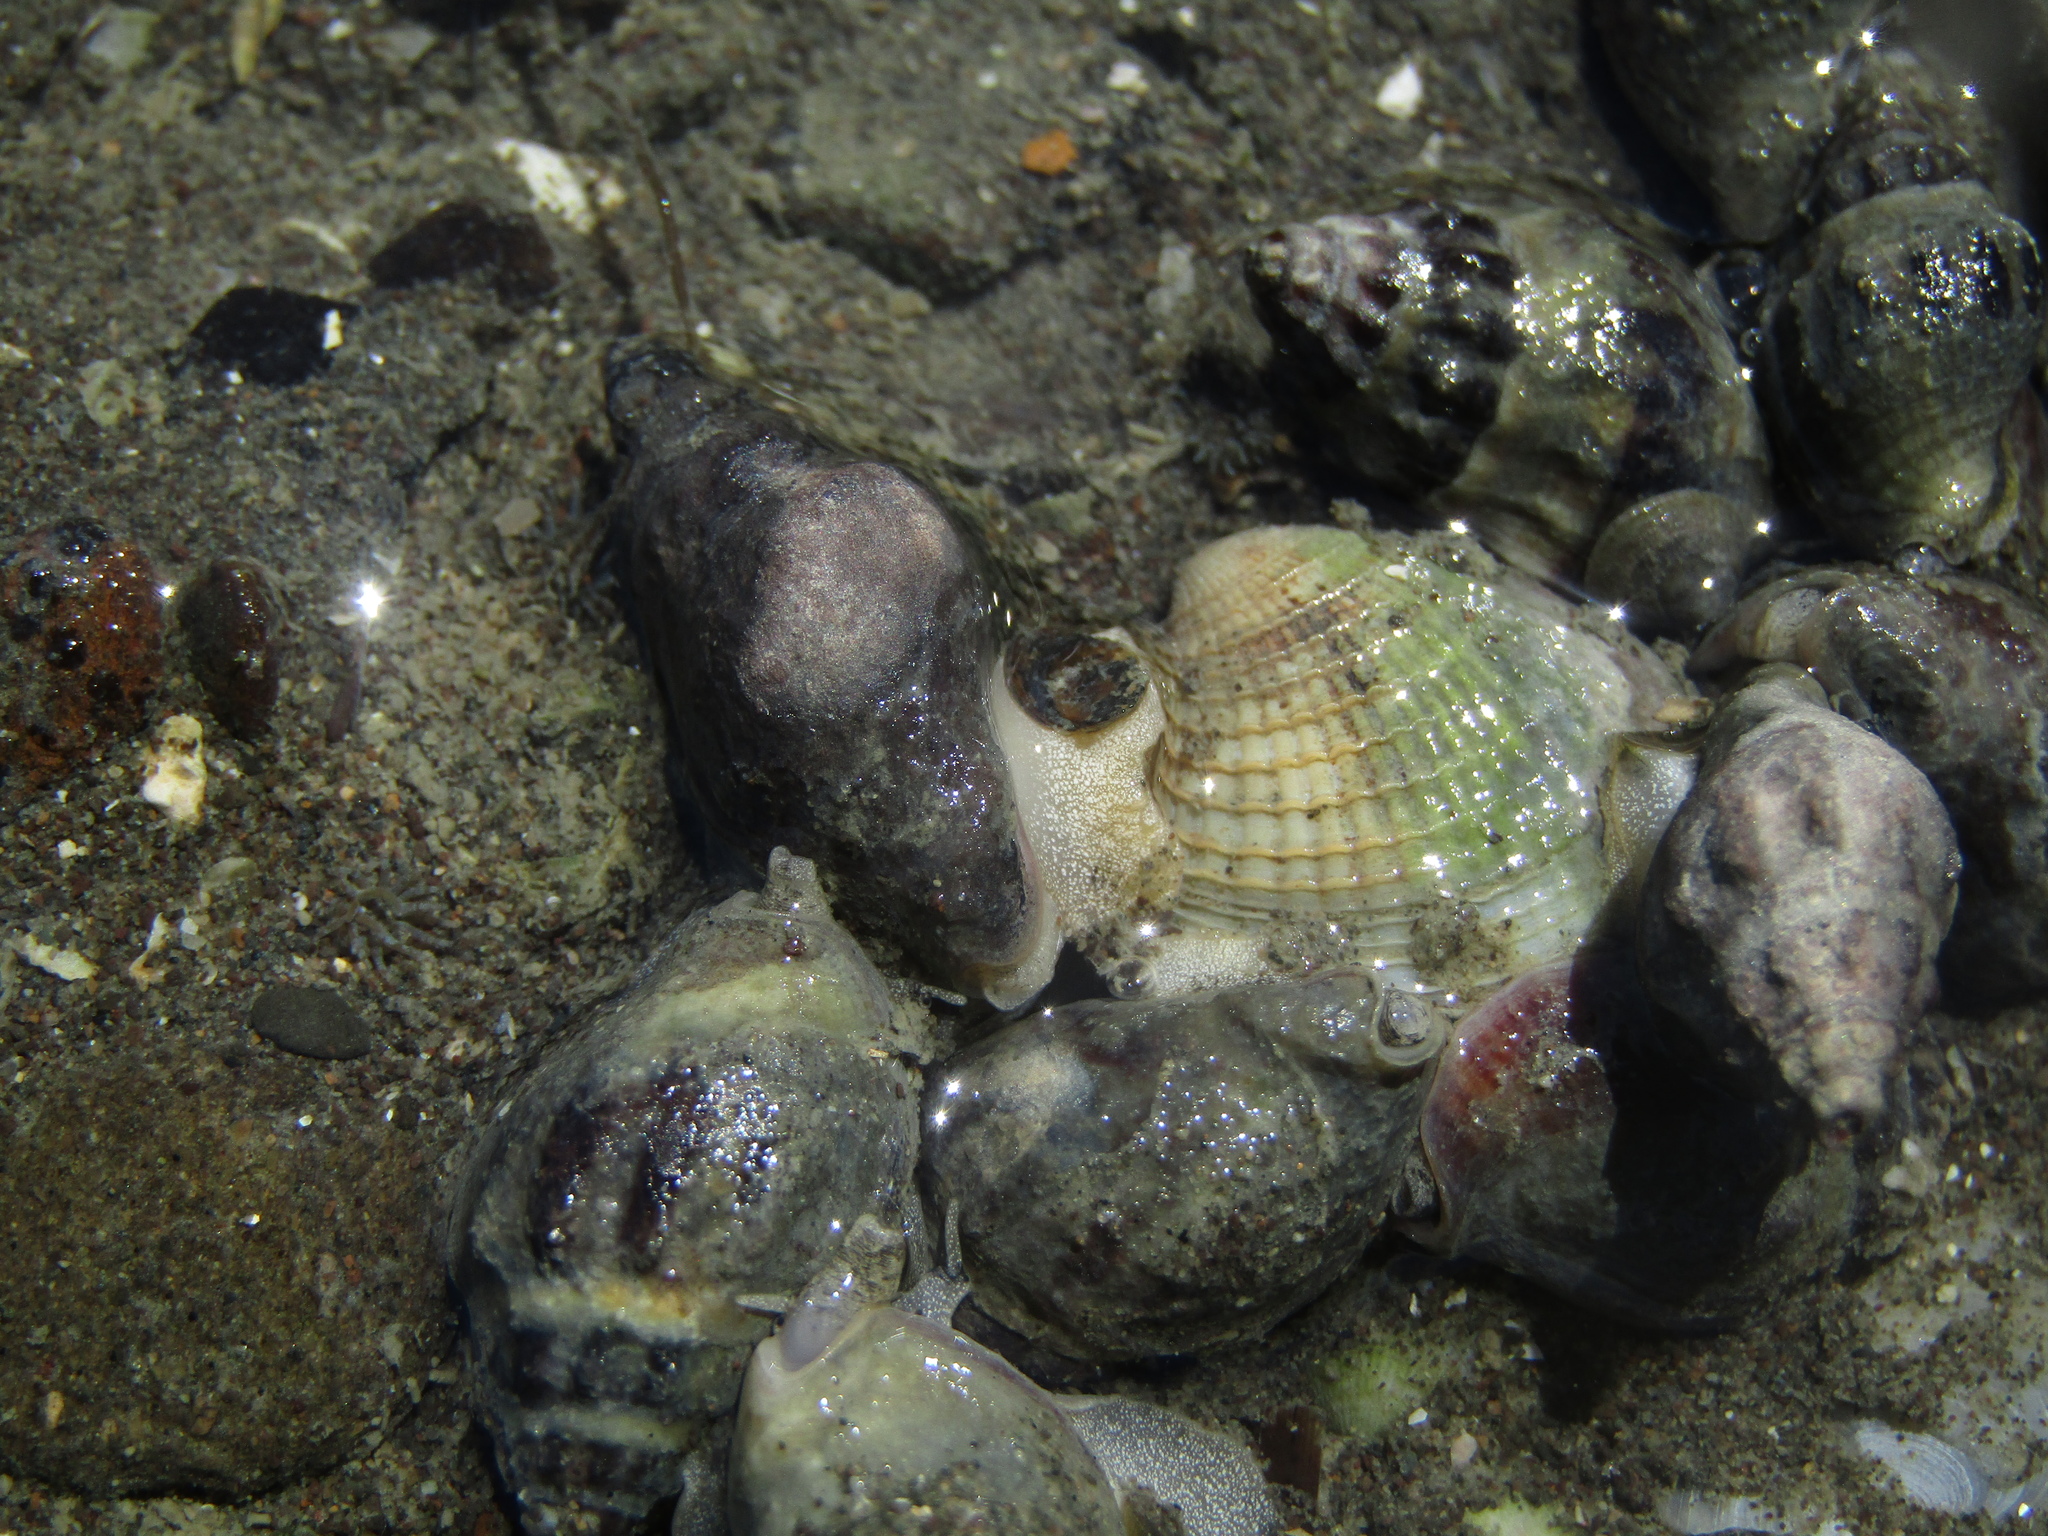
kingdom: Animalia
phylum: Mollusca
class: Gastropoda
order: Neogastropoda
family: Cominellidae
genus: Cominella
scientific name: Cominella glandiformis
